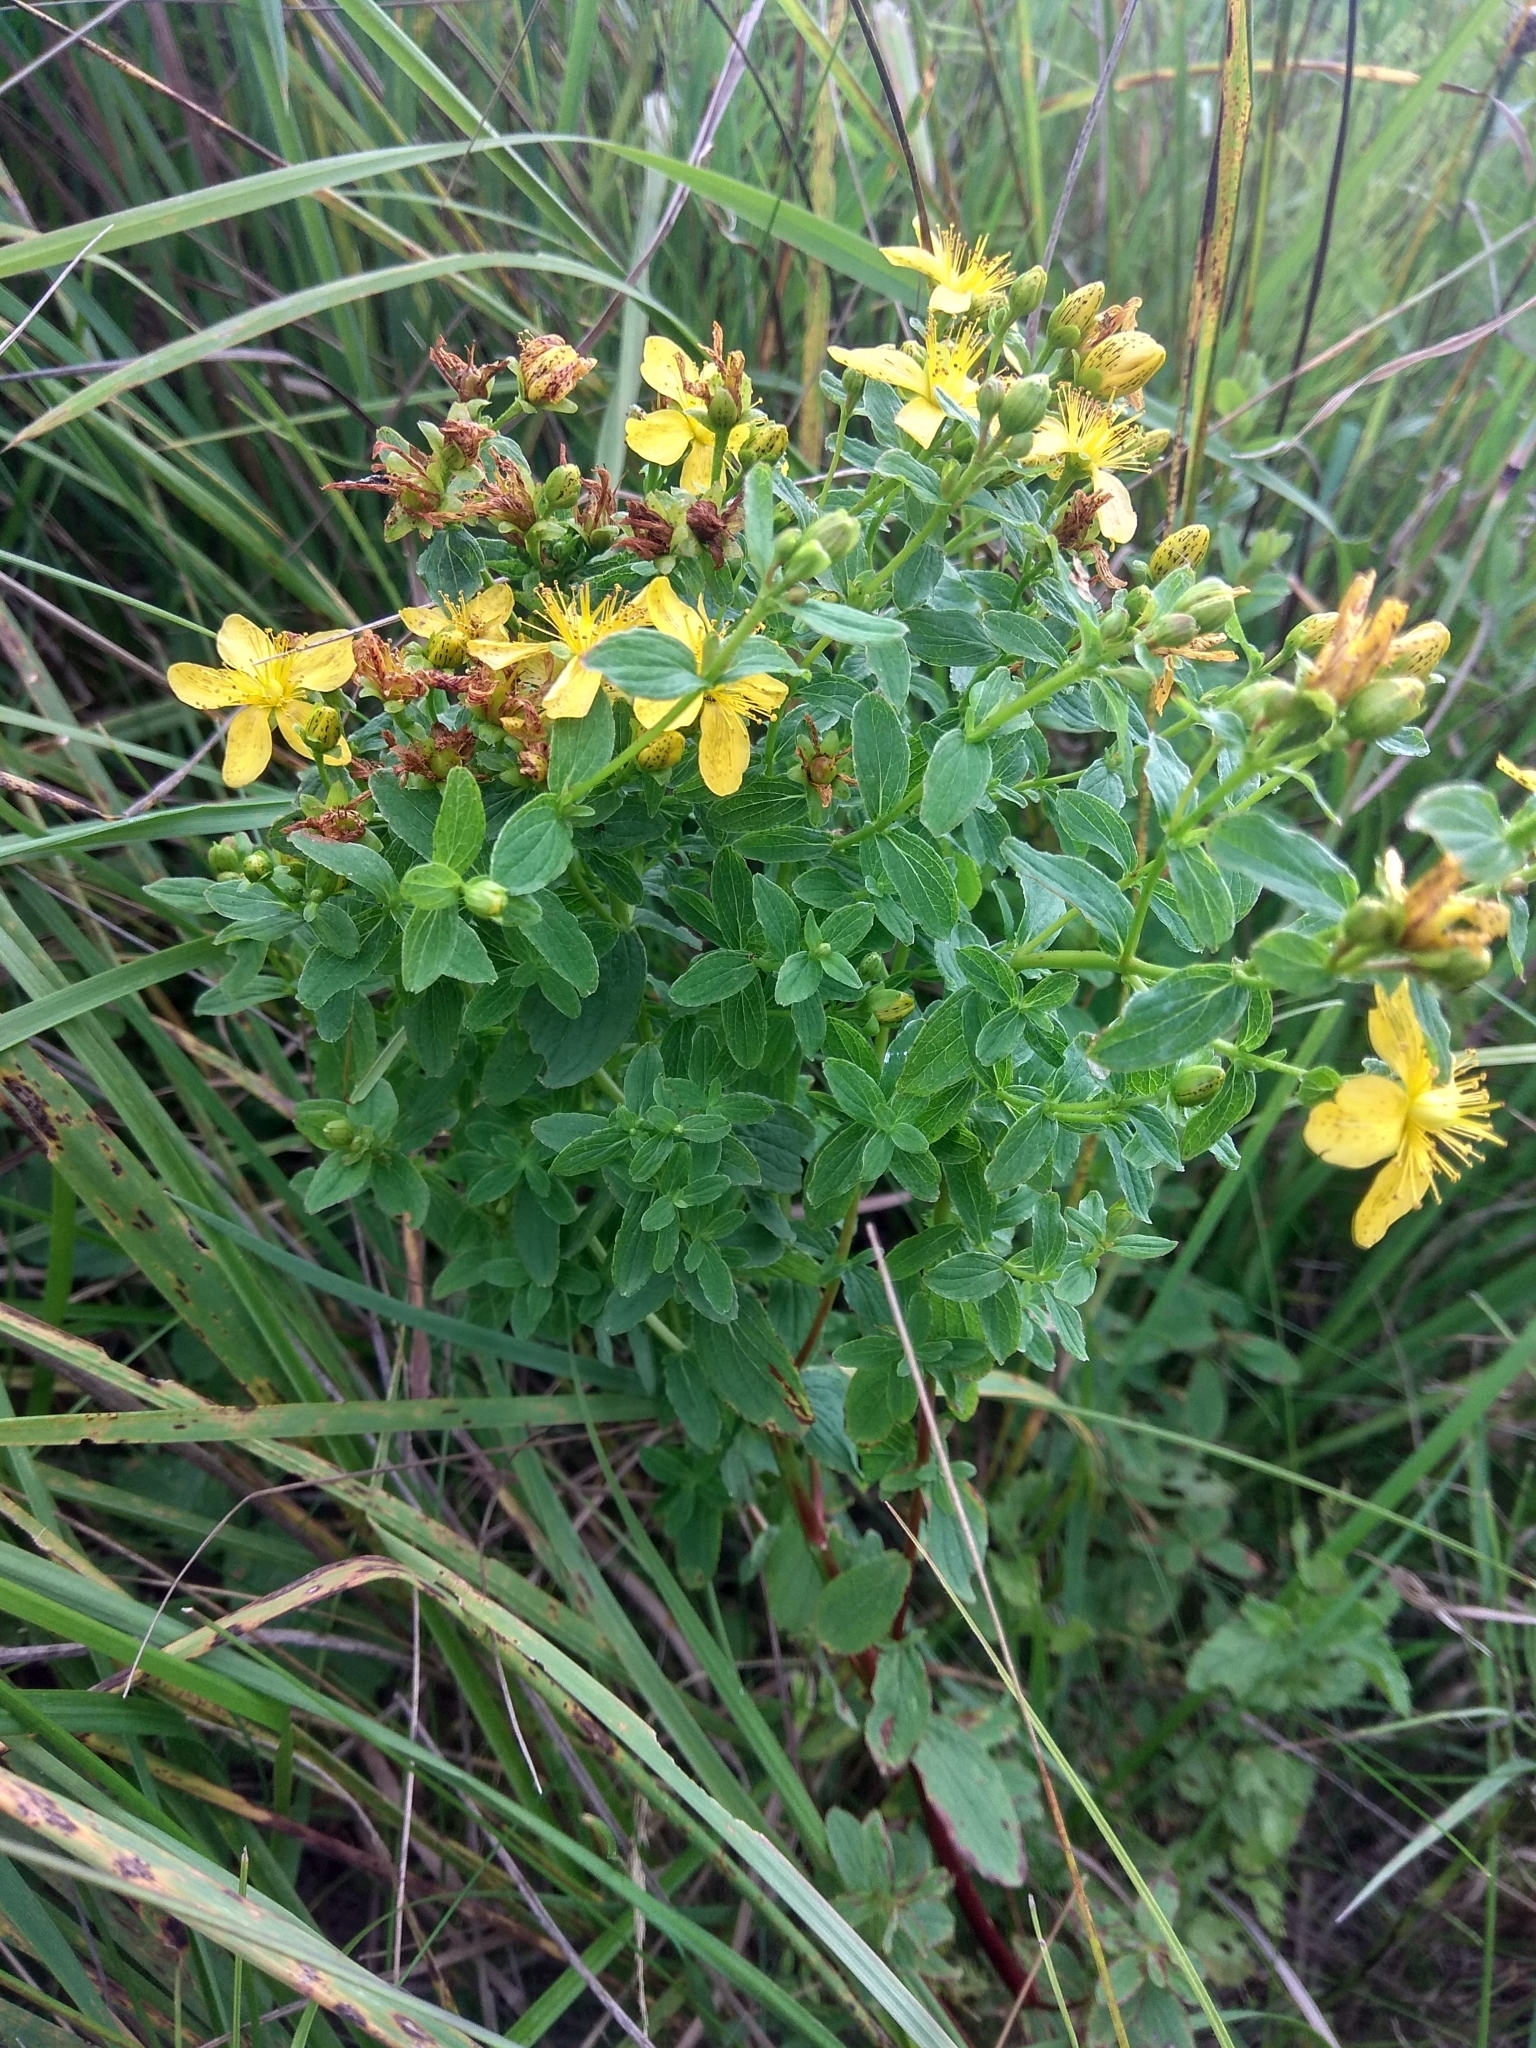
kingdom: Plantae
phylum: Tracheophyta
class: Magnoliopsida
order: Malpighiales
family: Hypericaceae
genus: Hypericum
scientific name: Hypericum maculatum
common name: Imperforate st. john's-wort
